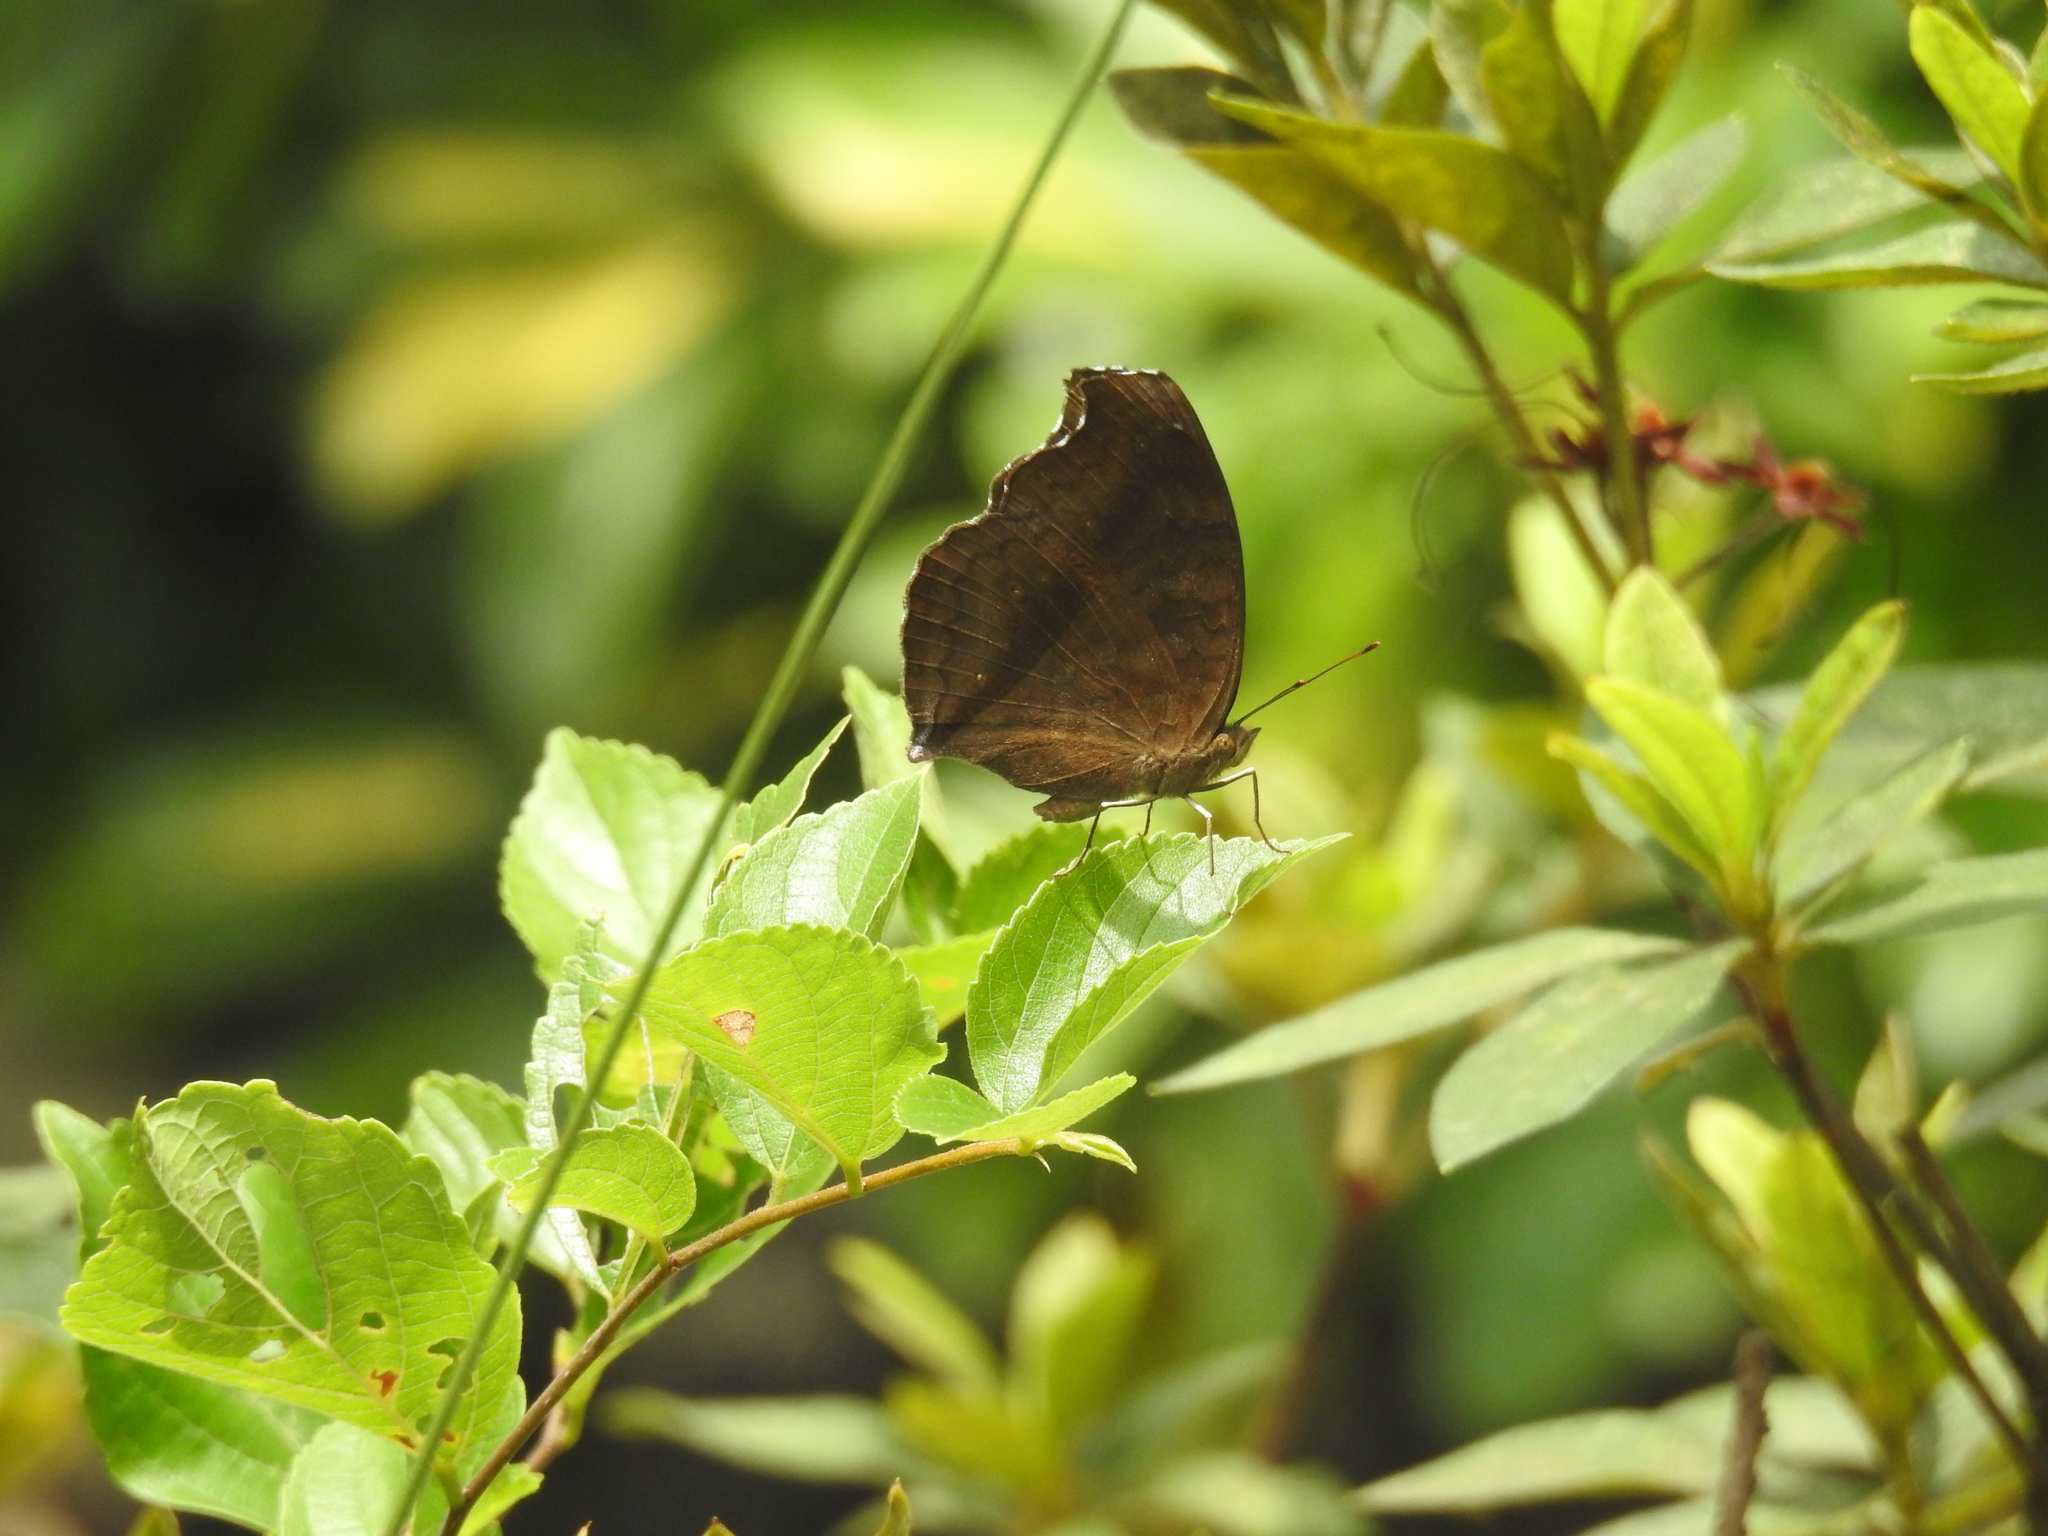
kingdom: Animalia
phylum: Arthropoda
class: Insecta
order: Lepidoptera
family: Nymphalidae
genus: Junonia
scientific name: Junonia iphita
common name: Chocolate pansy
